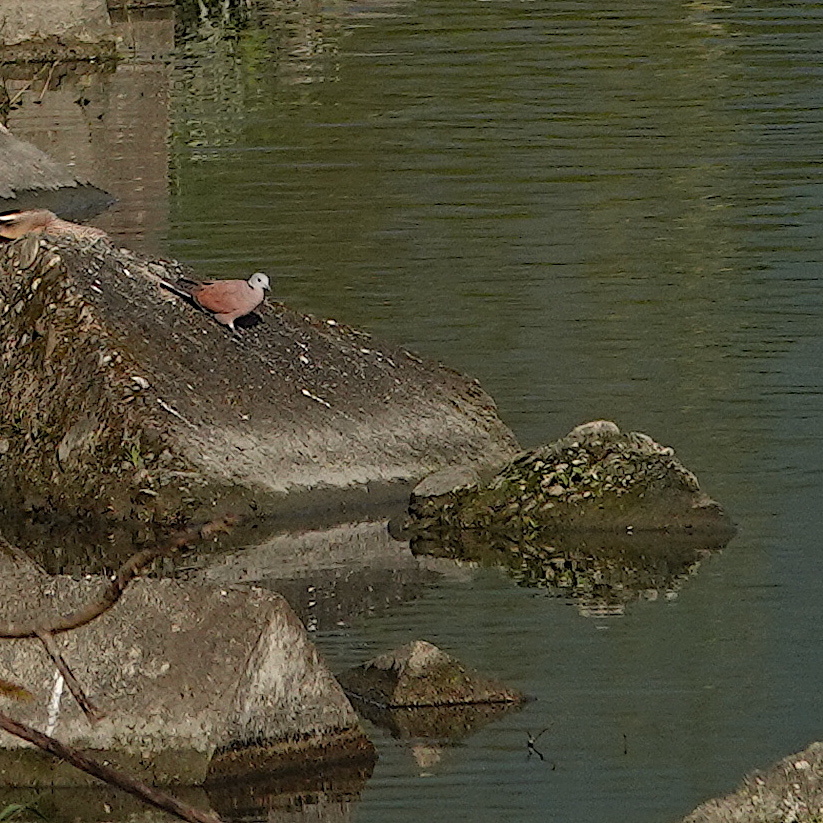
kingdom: Animalia
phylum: Chordata
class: Aves
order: Columbiformes
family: Columbidae
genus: Streptopelia
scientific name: Streptopelia tranquebarica
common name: Red turtle dove
